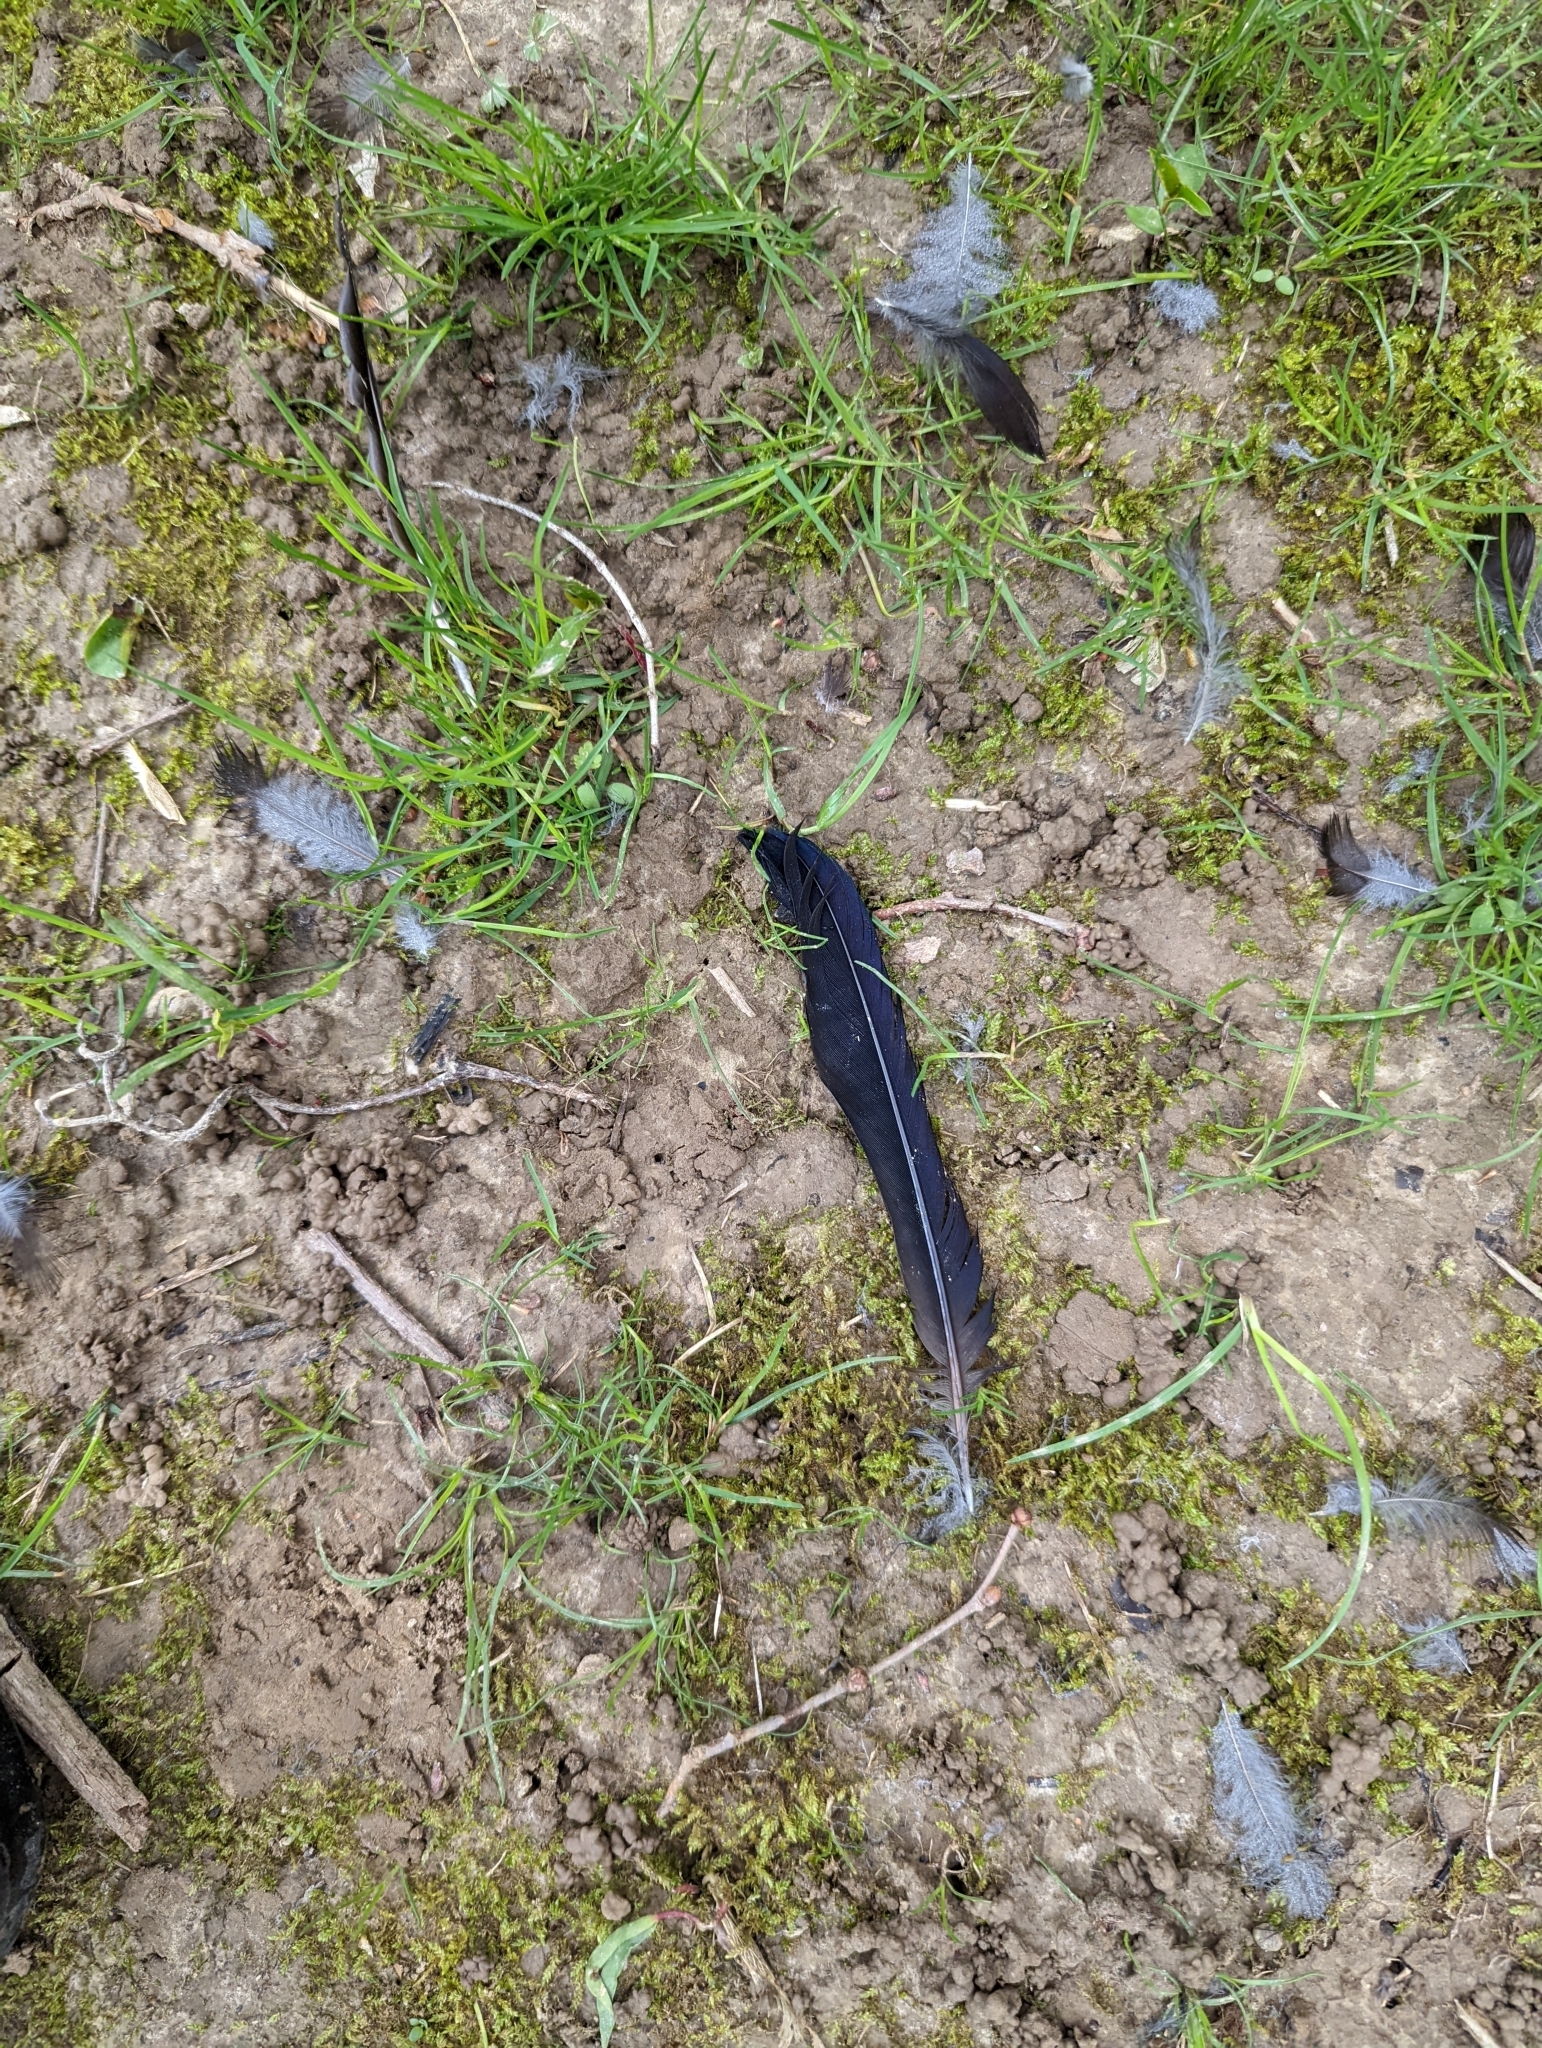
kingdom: Animalia
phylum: Chordata
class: Aves
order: Passeriformes
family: Icteridae
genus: Quiscalus
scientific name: Quiscalus quiscula
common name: Common grackle
